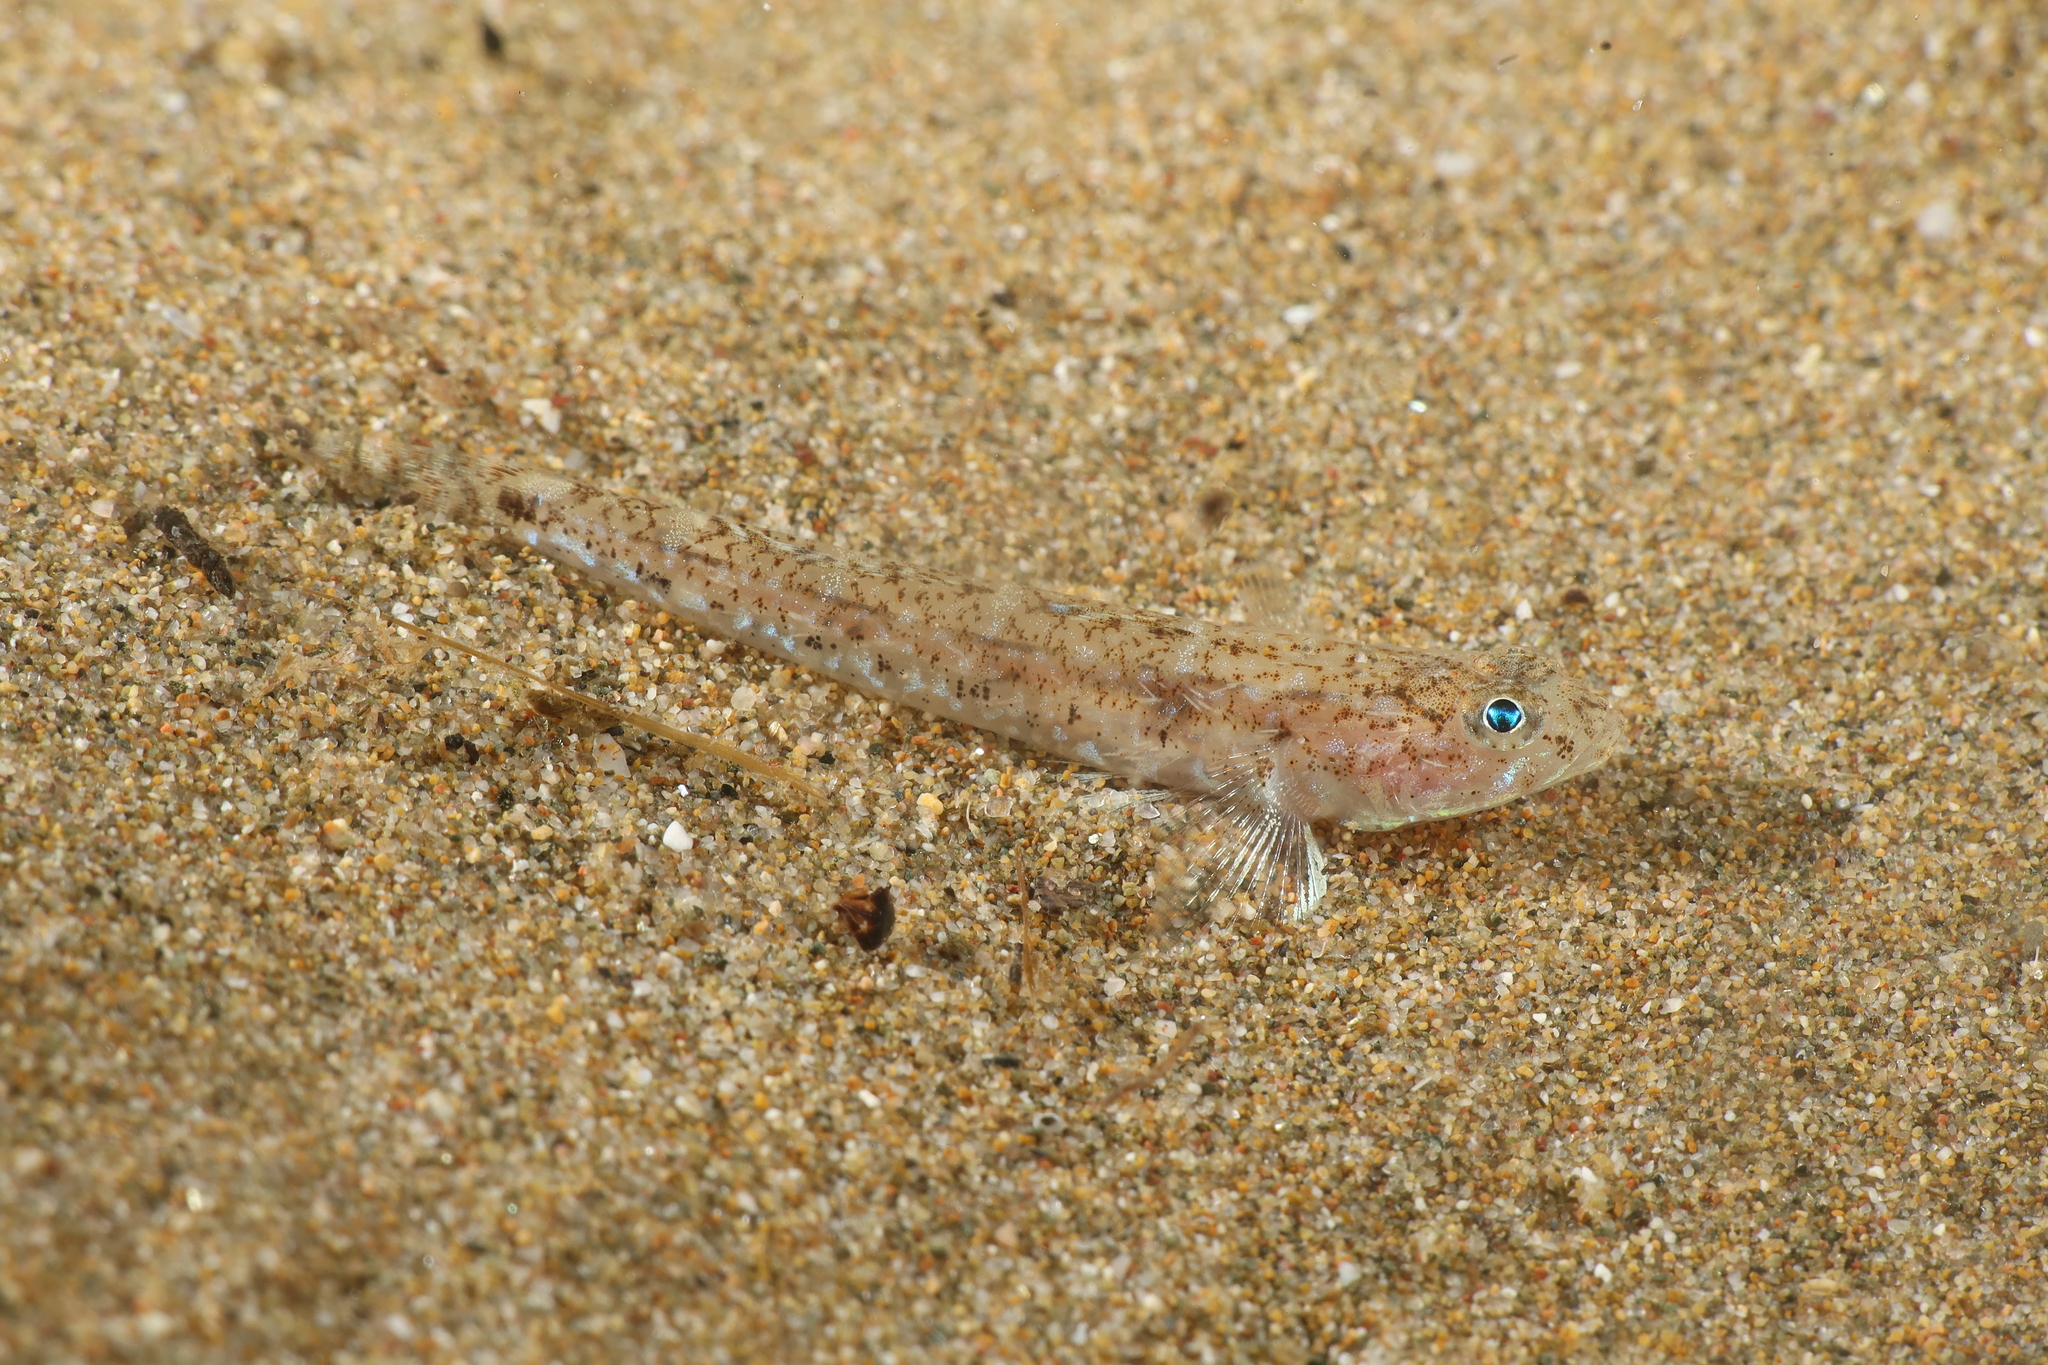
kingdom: Animalia
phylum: Chordata
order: Perciformes
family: Gobiidae
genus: Pomatoschistus
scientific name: Pomatoschistus marmoratus
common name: Marbled goby
